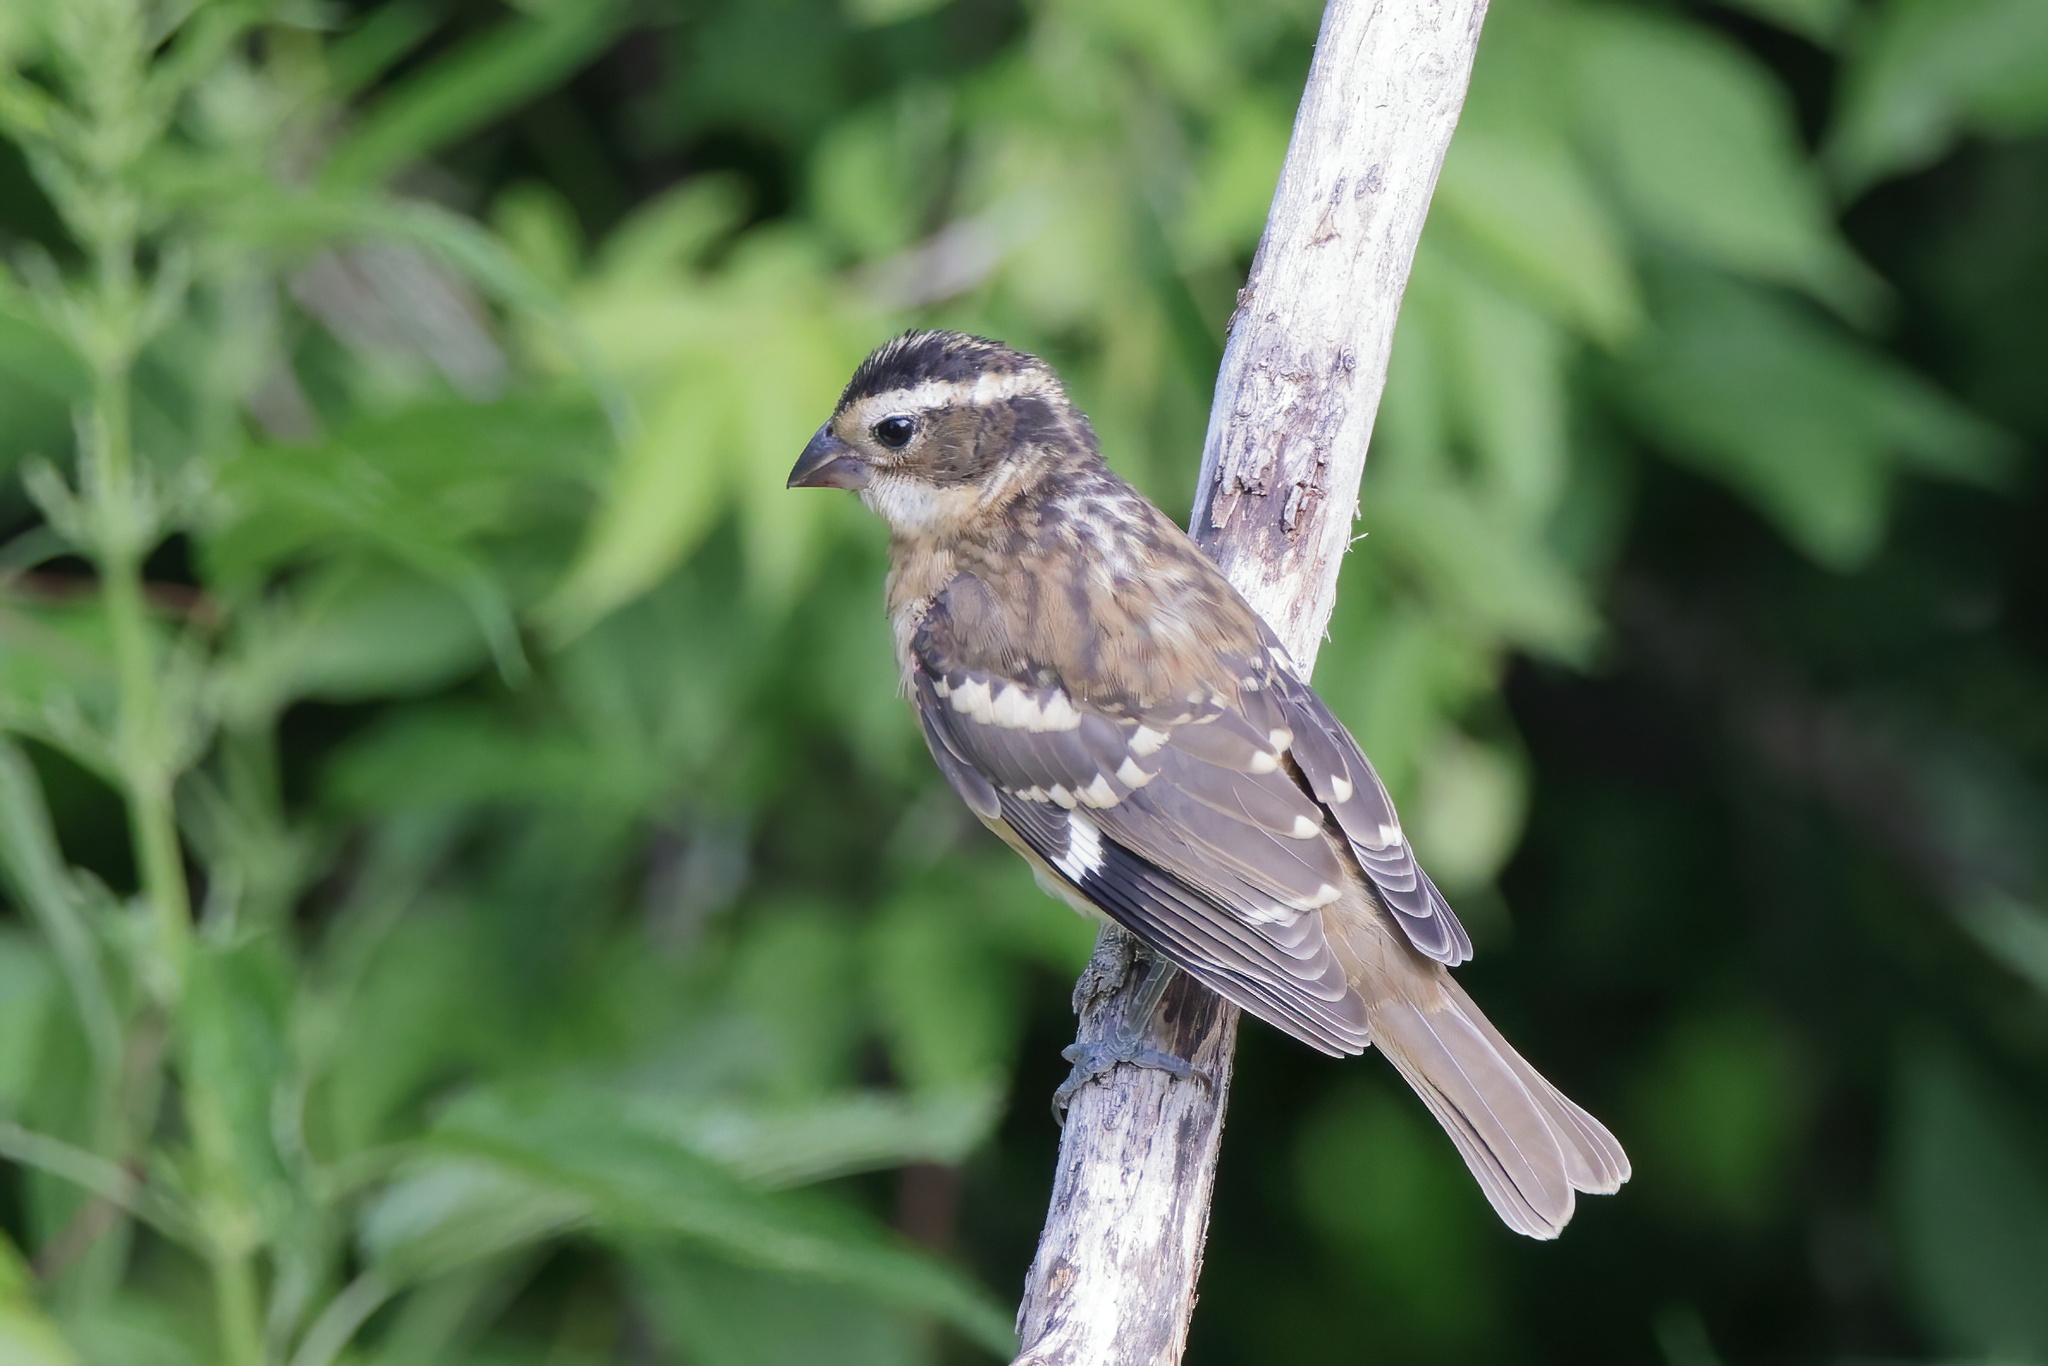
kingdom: Animalia
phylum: Chordata
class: Aves
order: Passeriformes
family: Cardinalidae
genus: Pheucticus
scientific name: Pheucticus ludovicianus
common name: Rose-breasted grosbeak
